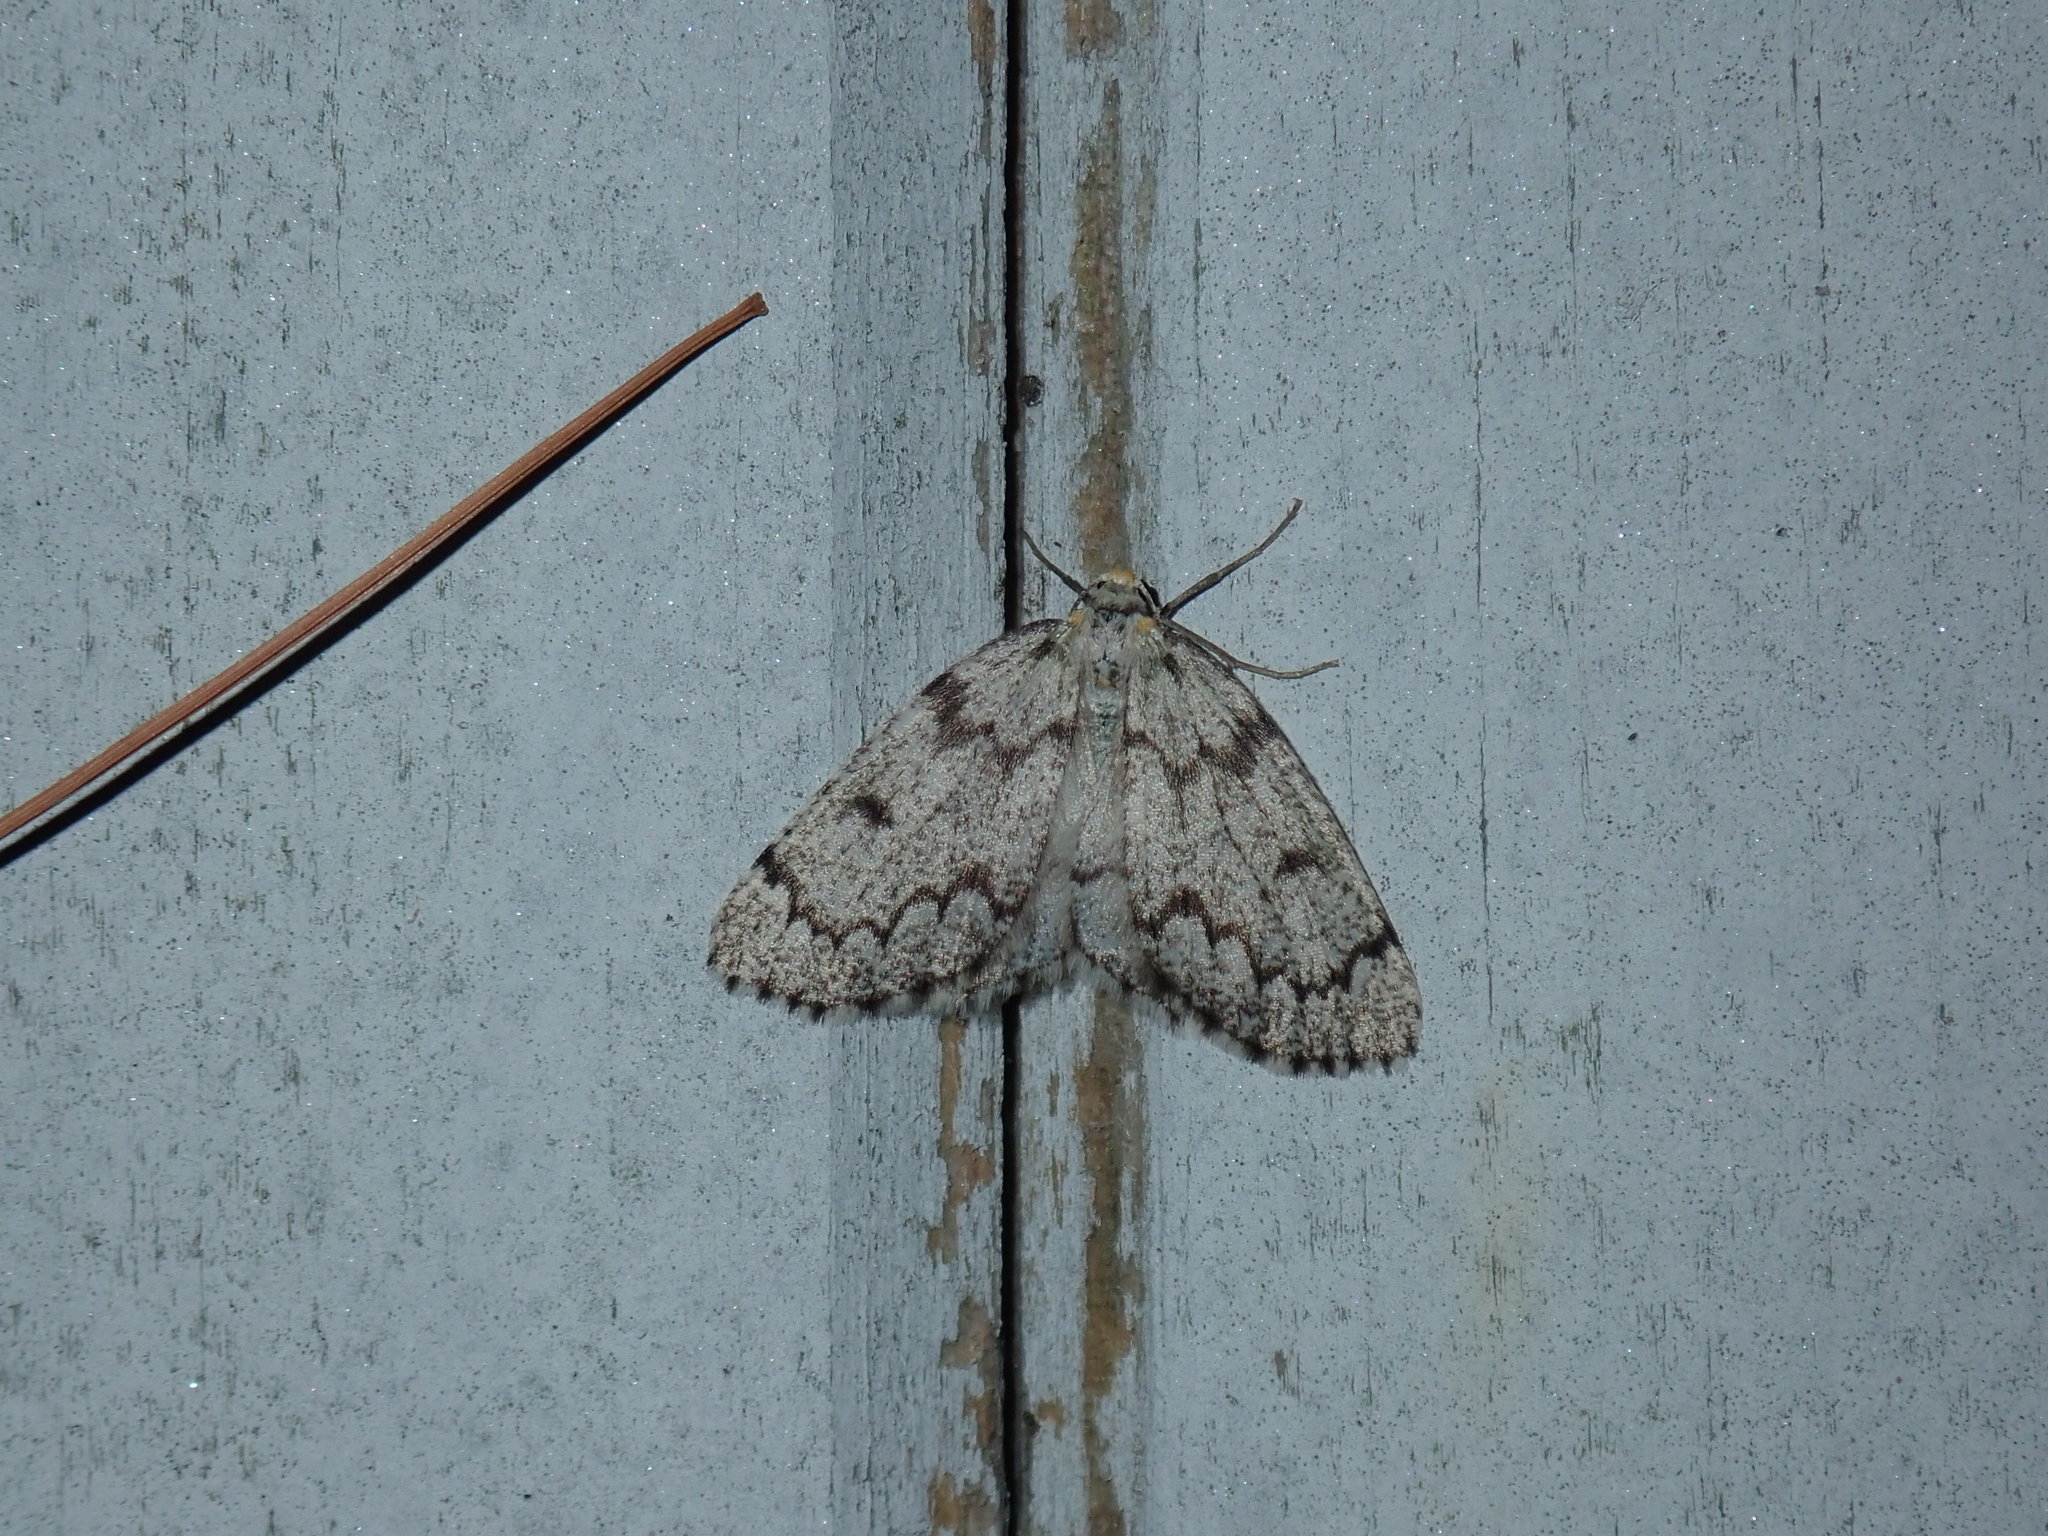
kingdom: Animalia
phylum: Arthropoda
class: Insecta
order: Lepidoptera
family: Geometridae
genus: Nepytia
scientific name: Nepytia canosaria
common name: False hemlock looper
